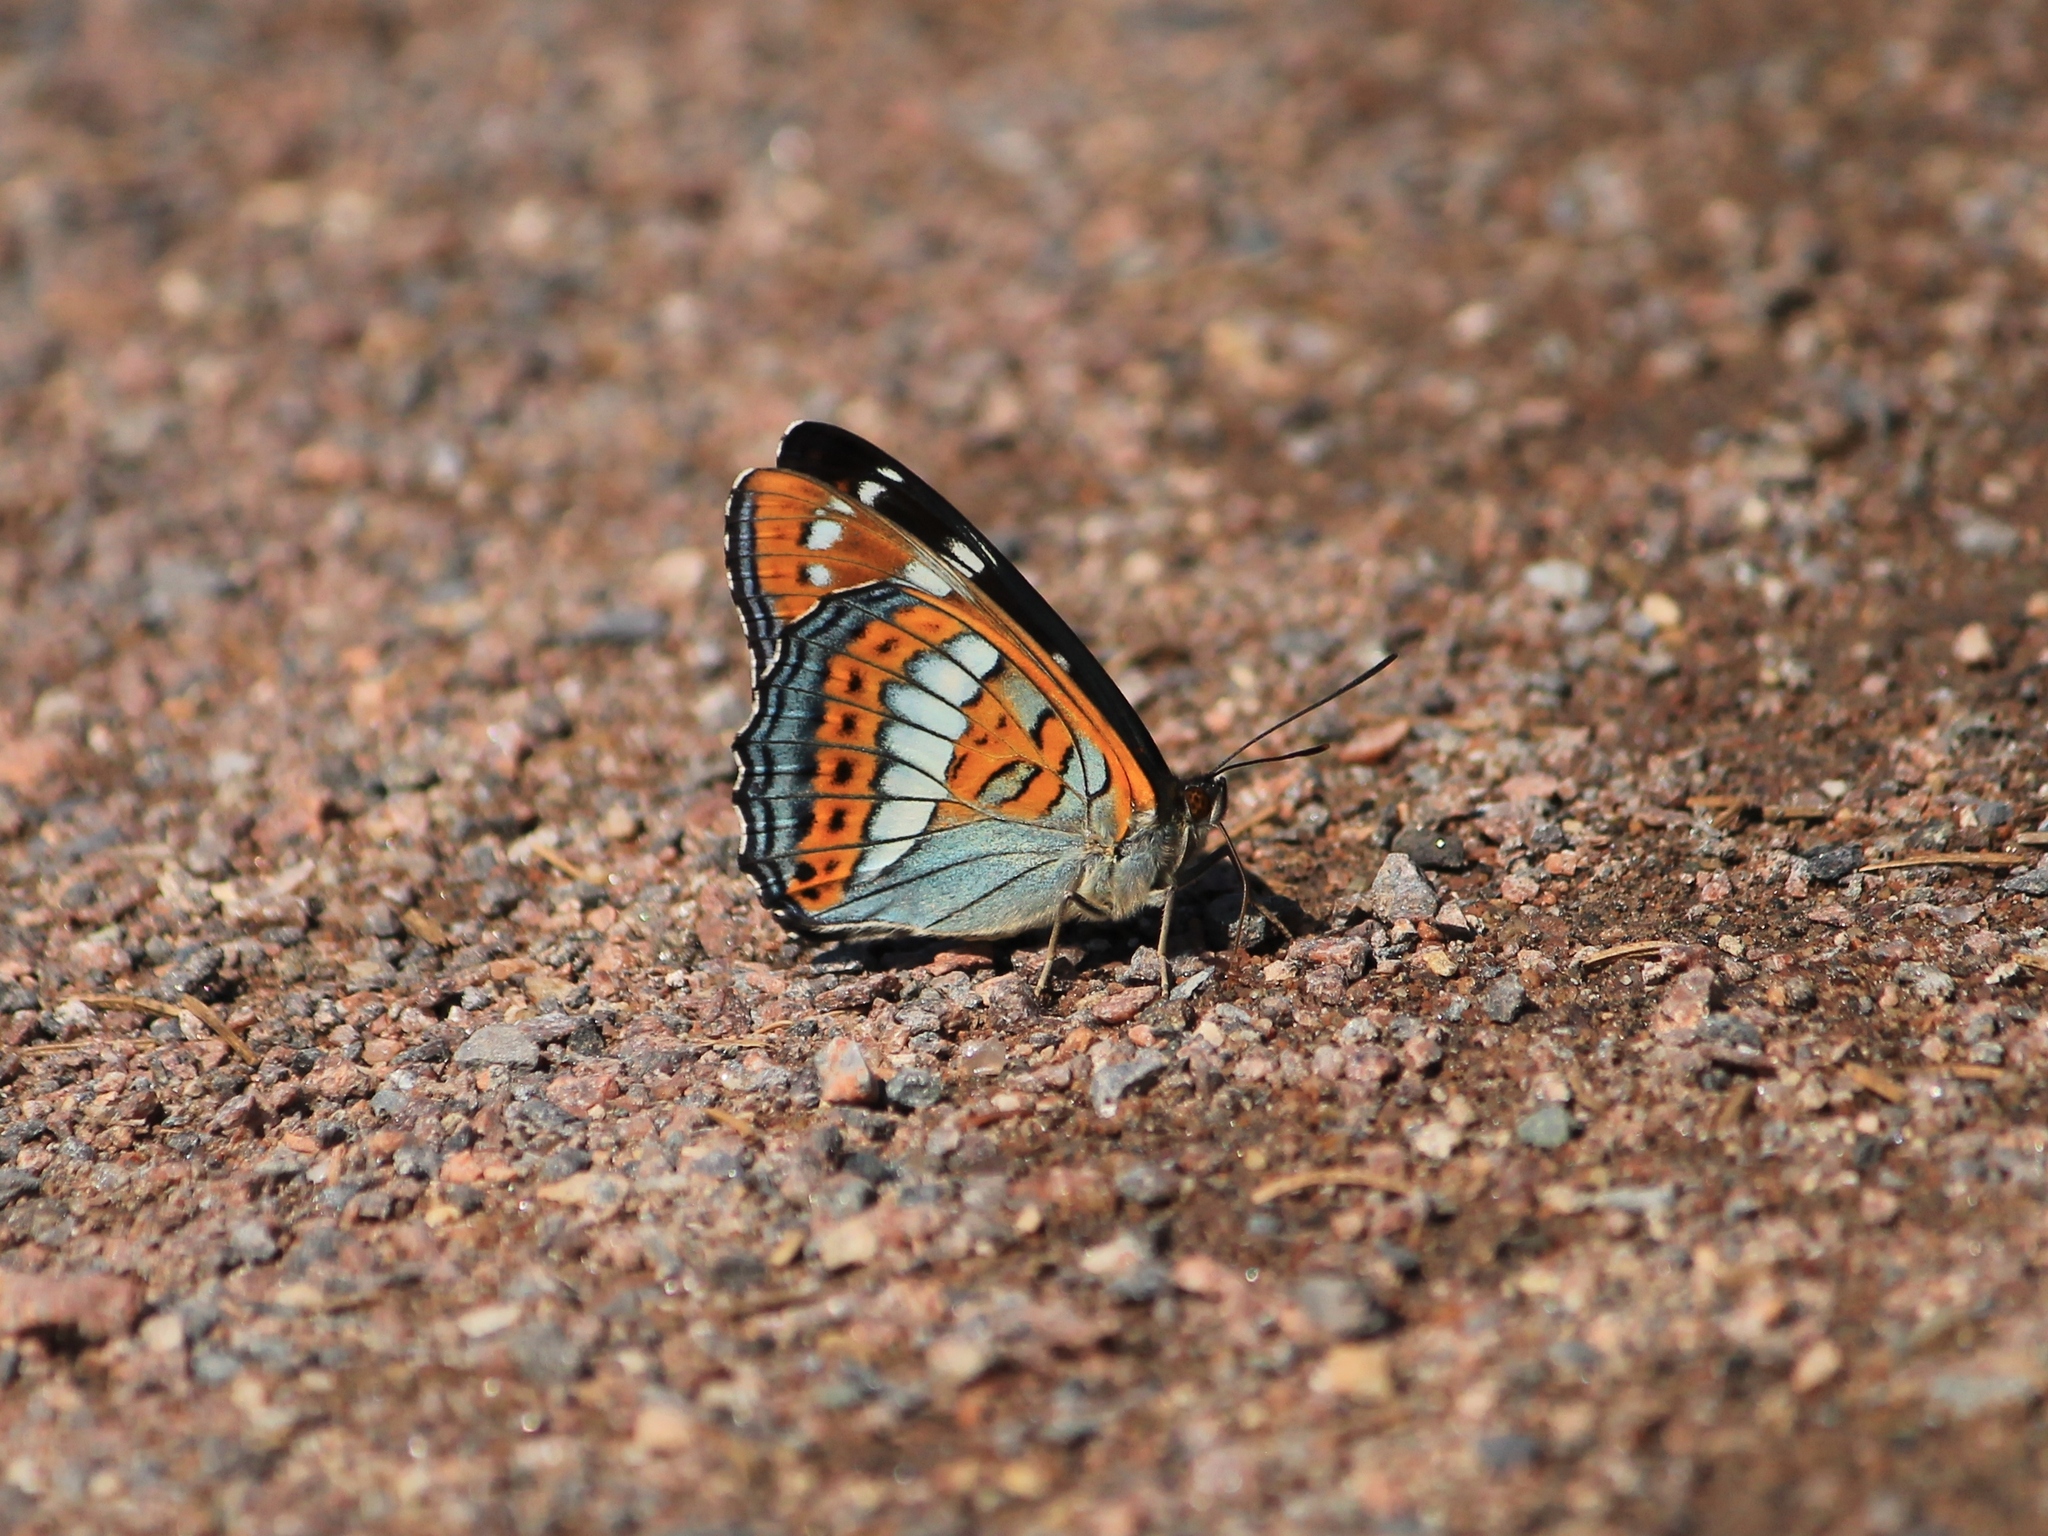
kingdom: Animalia
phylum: Arthropoda
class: Insecta
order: Lepidoptera
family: Nymphalidae
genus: Limenitis
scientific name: Limenitis populi
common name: Poplar admiral
